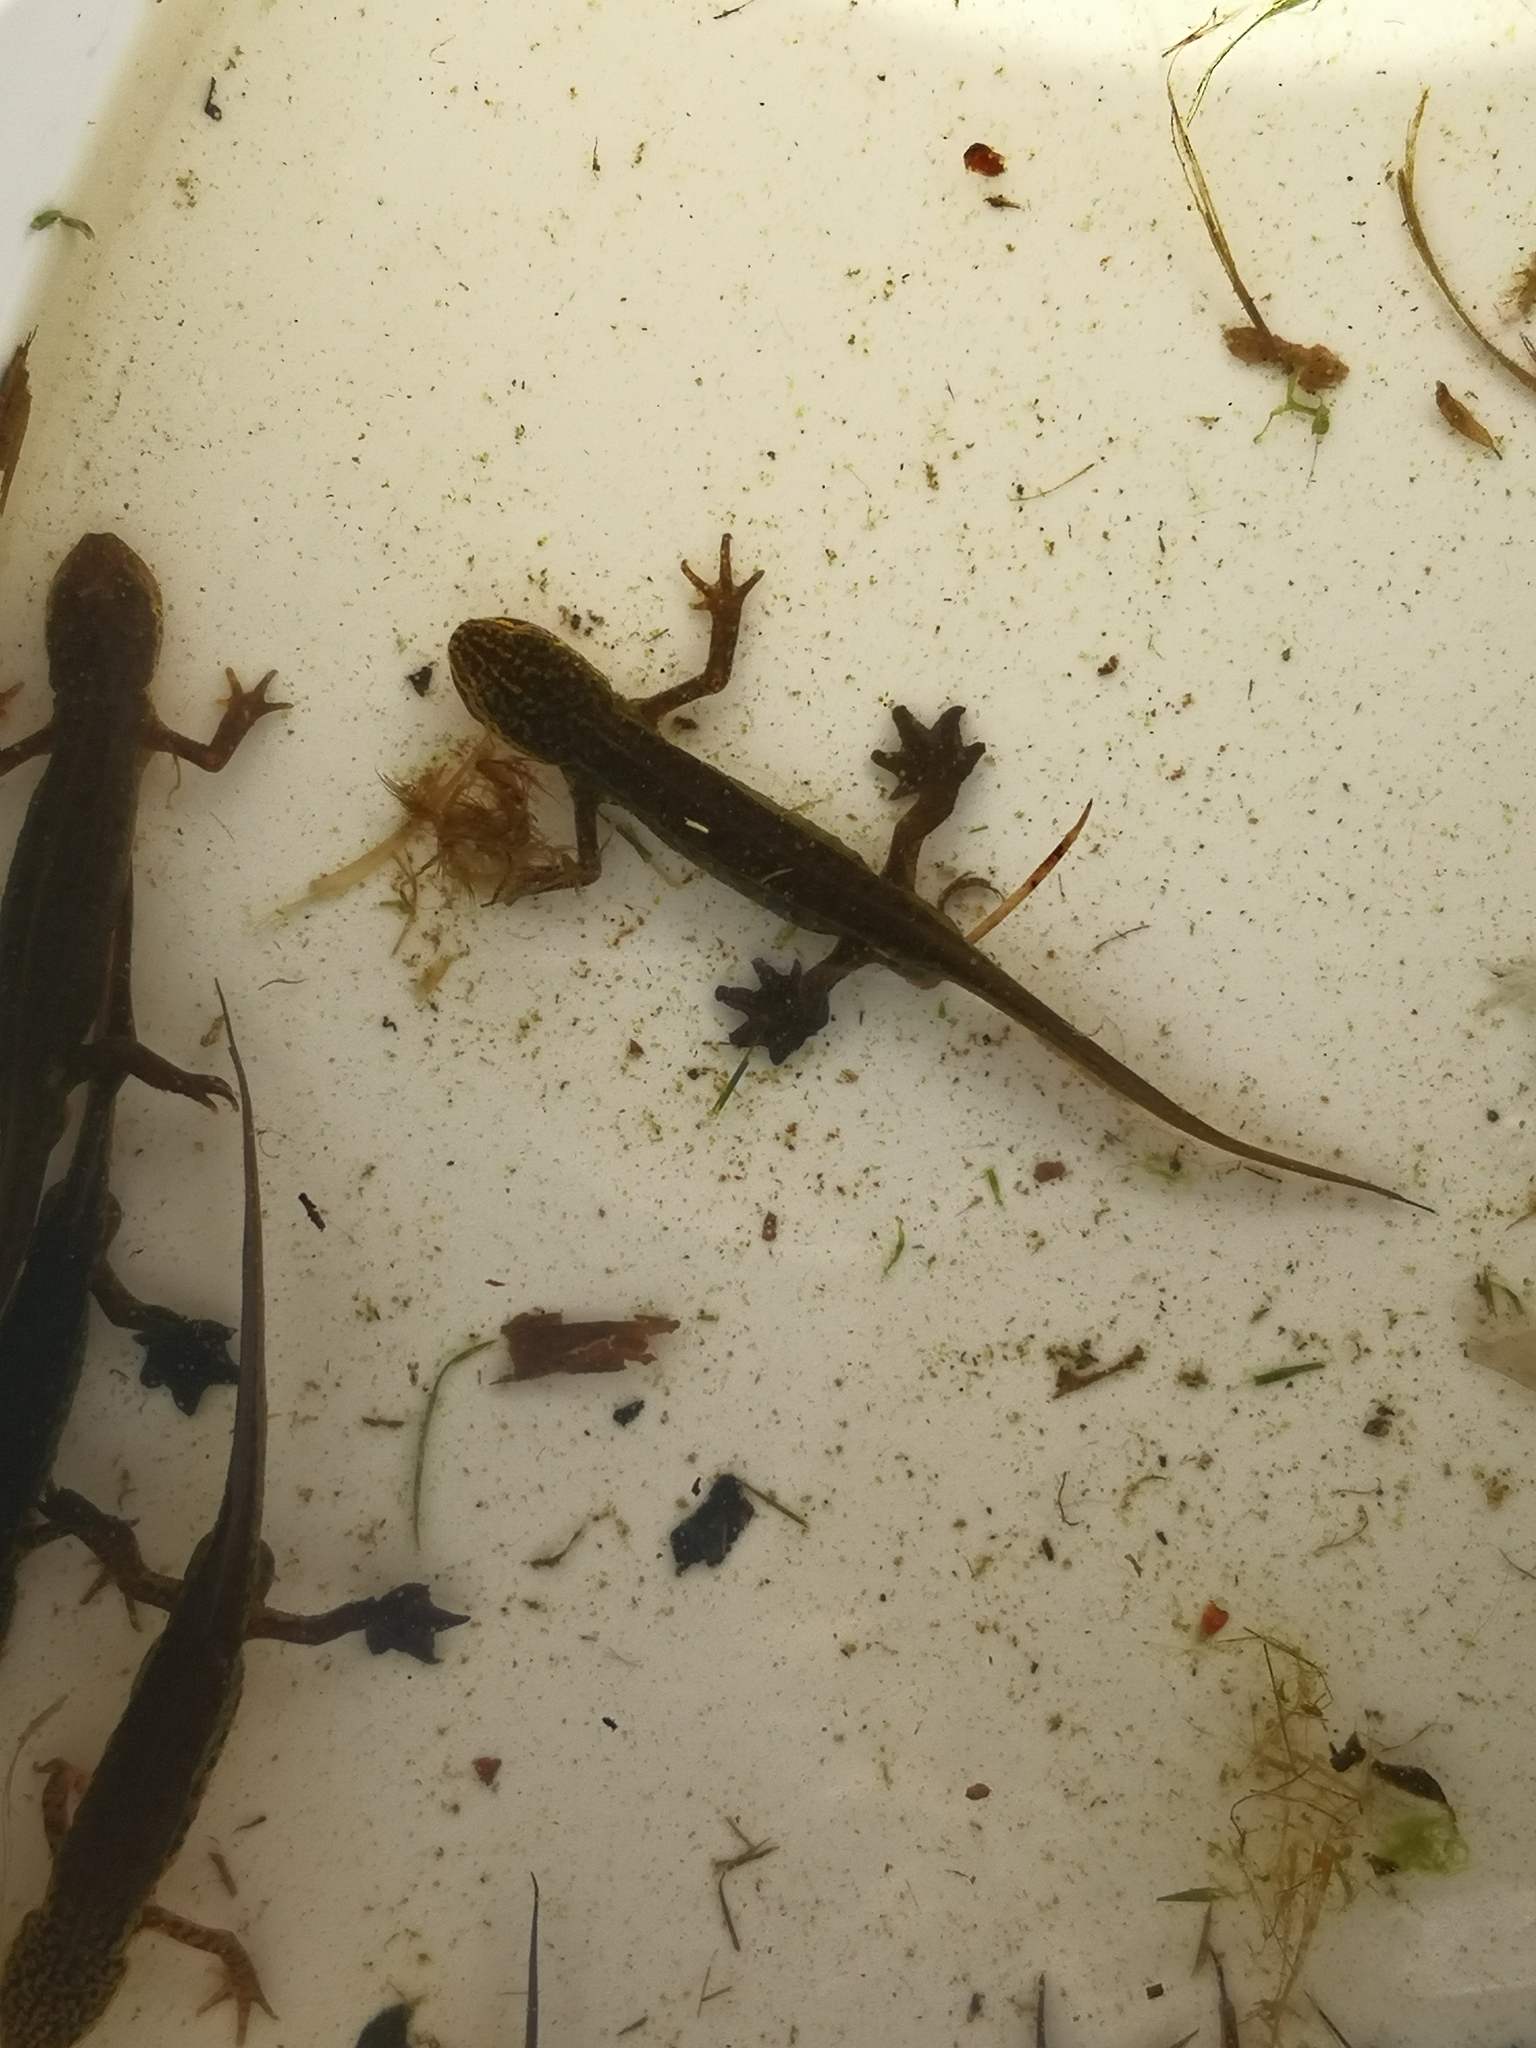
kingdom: Animalia
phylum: Chordata
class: Amphibia
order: Caudata
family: Salamandridae
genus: Lissotriton
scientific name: Lissotriton helveticus
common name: Palmate newt
